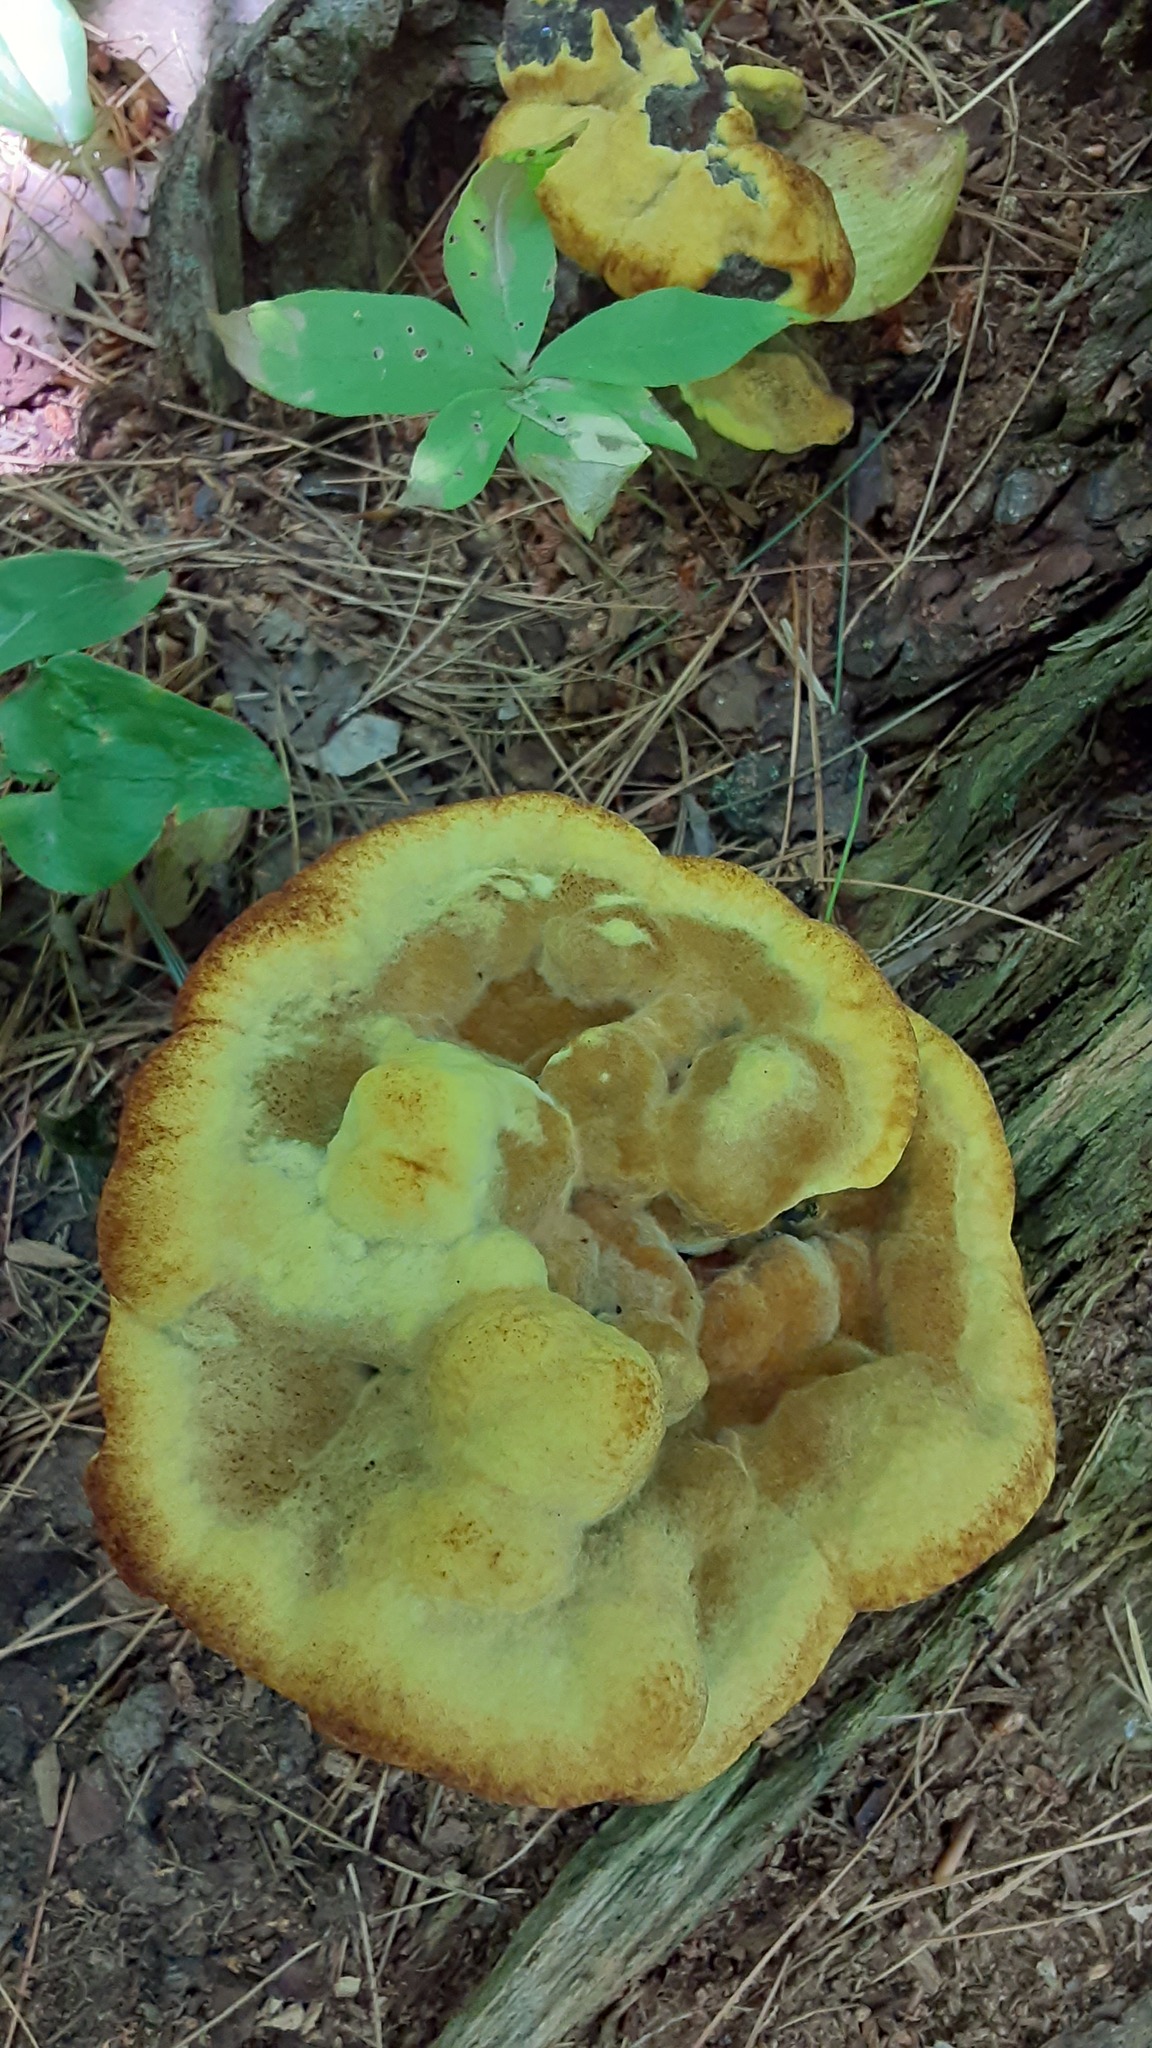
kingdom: Fungi
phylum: Basidiomycota
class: Agaricomycetes
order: Polyporales
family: Laetiporaceae
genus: Phaeolus
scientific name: Phaeolus schweinitzii
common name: Dyer's mazegill
